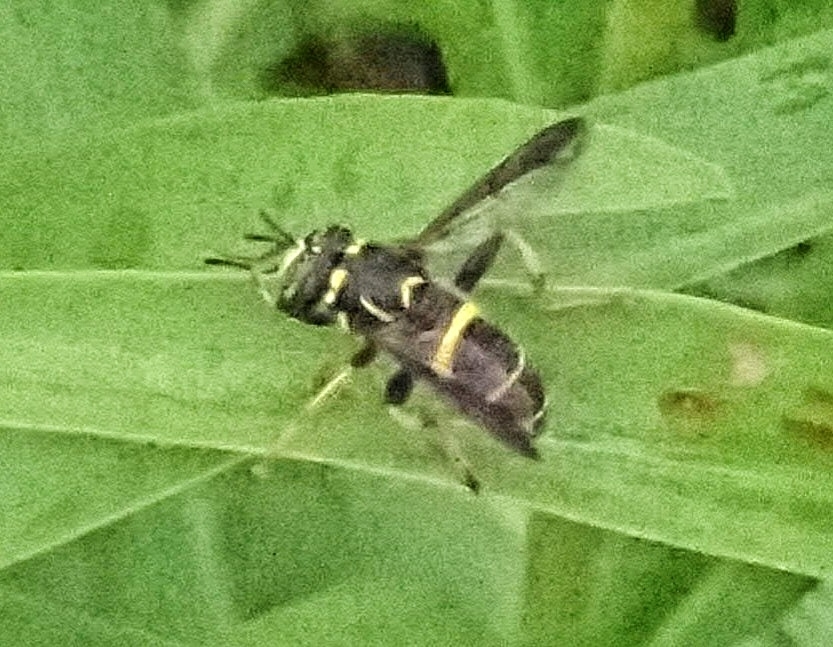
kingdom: Animalia
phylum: Arthropoda
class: Insecta
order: Diptera
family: Syrphidae
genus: Spilomyia
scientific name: Spilomyia sayi
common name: Four-lined hornet fly
